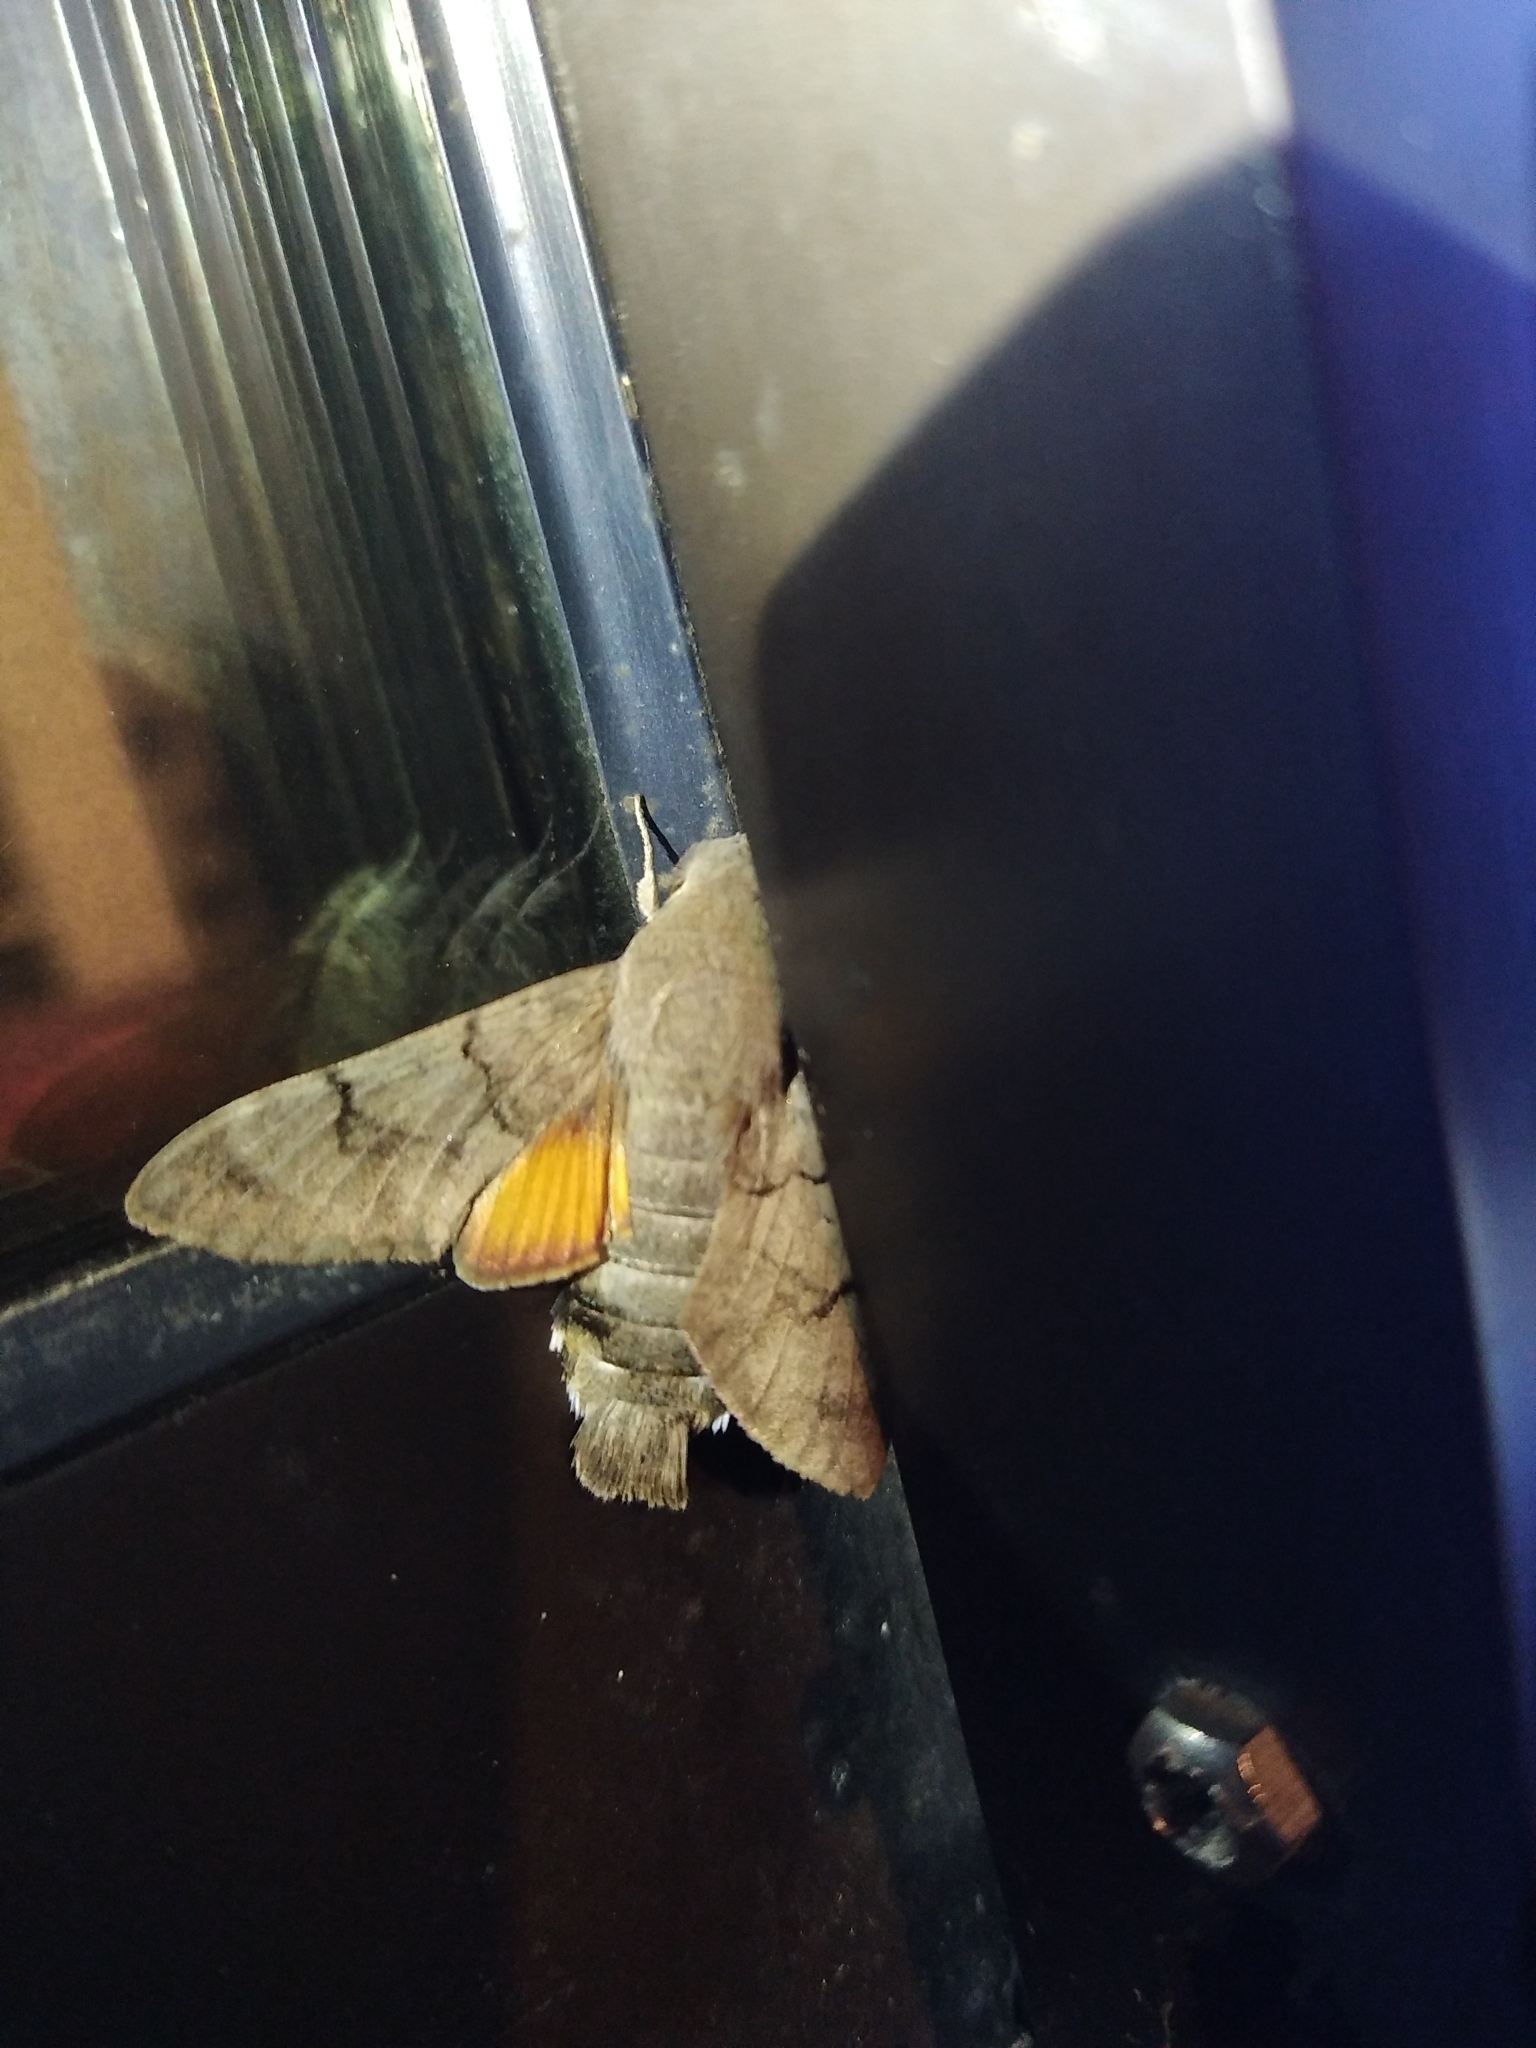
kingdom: Animalia
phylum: Arthropoda
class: Insecta
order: Lepidoptera
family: Sphingidae
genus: Macroglossum
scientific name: Macroglossum stellatarum
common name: Humming-bird hawk-moth
